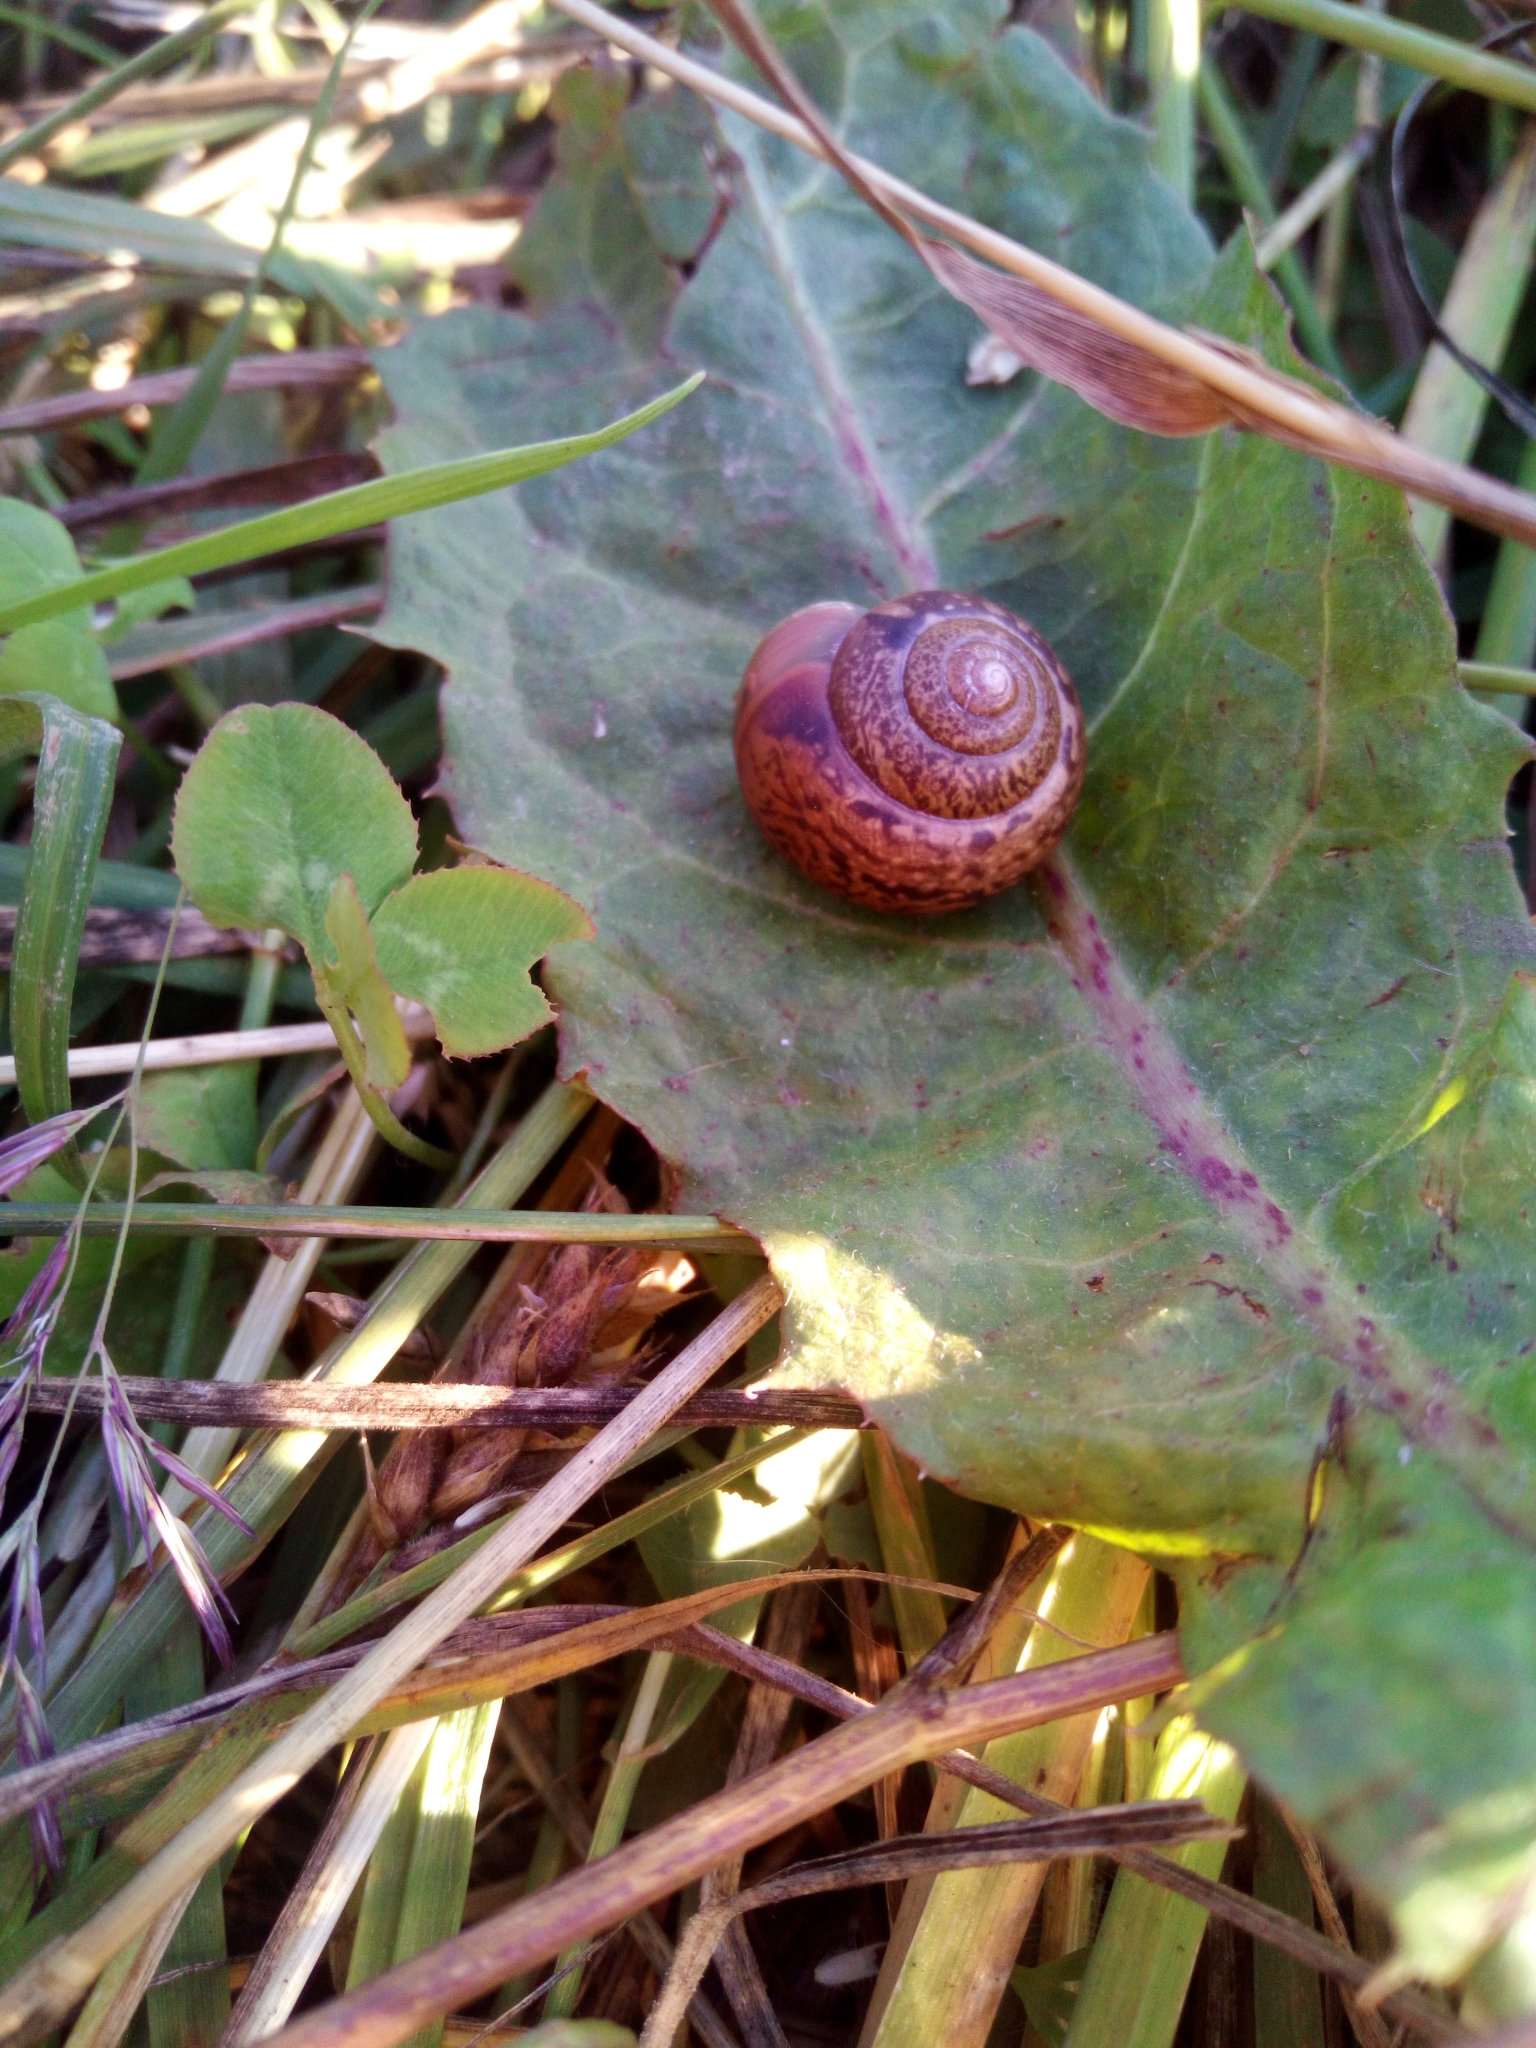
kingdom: Animalia
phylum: Mollusca
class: Gastropoda
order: Stylommatophora
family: Camaenidae
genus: Fruticicola
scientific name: Fruticicola fruticum
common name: Bush snail
